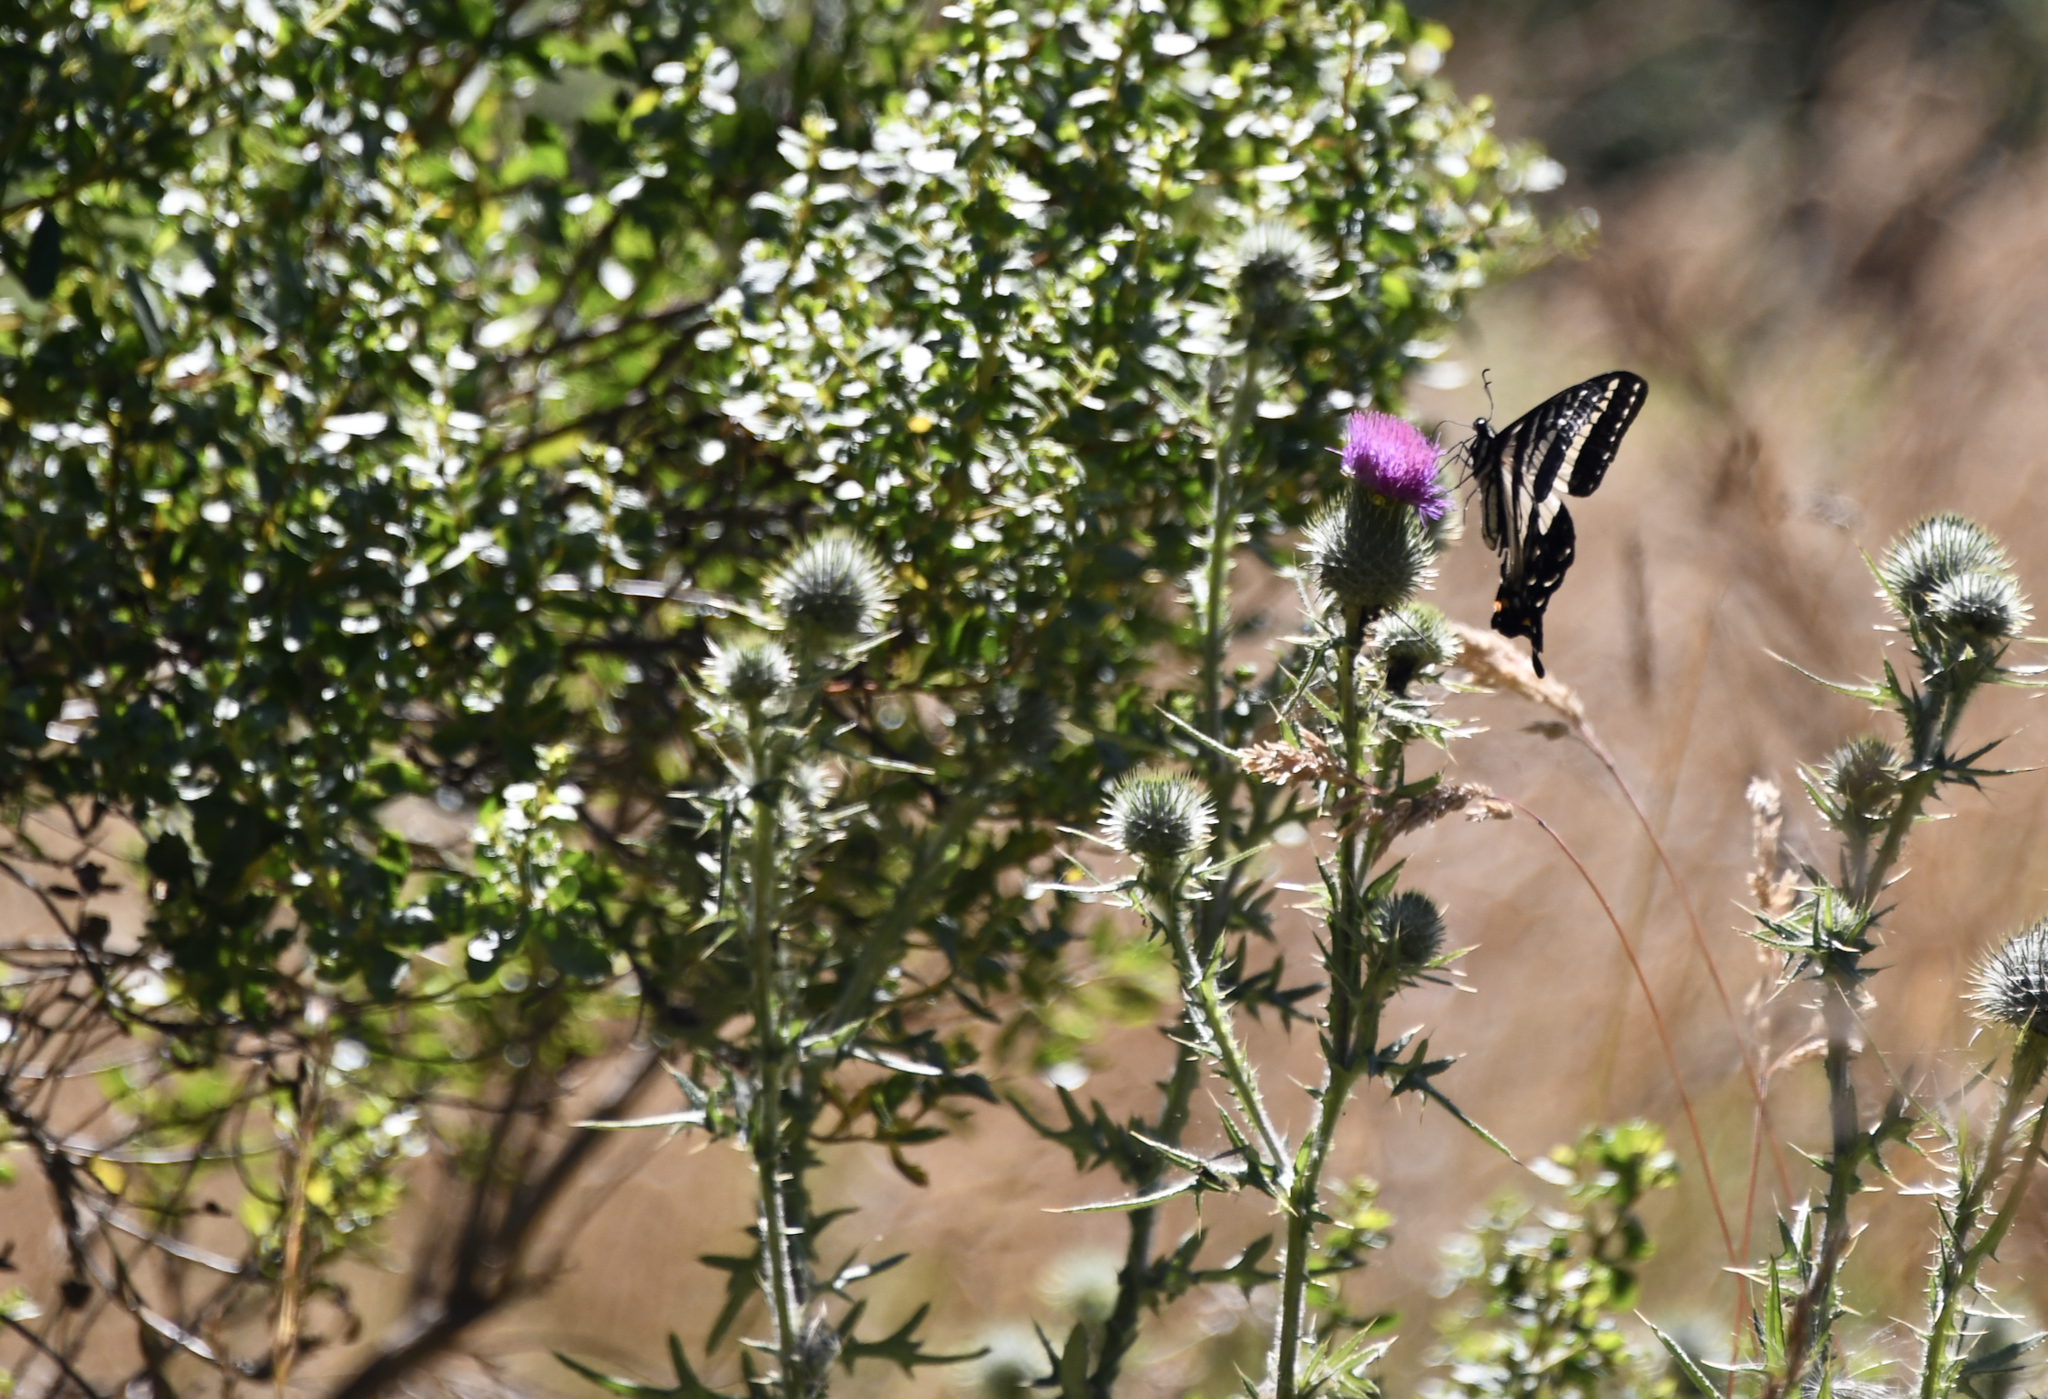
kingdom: Animalia
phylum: Arthropoda
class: Insecta
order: Lepidoptera
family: Papilionidae
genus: Papilio
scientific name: Papilio eurymedon
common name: Pale tiger swallowtail
